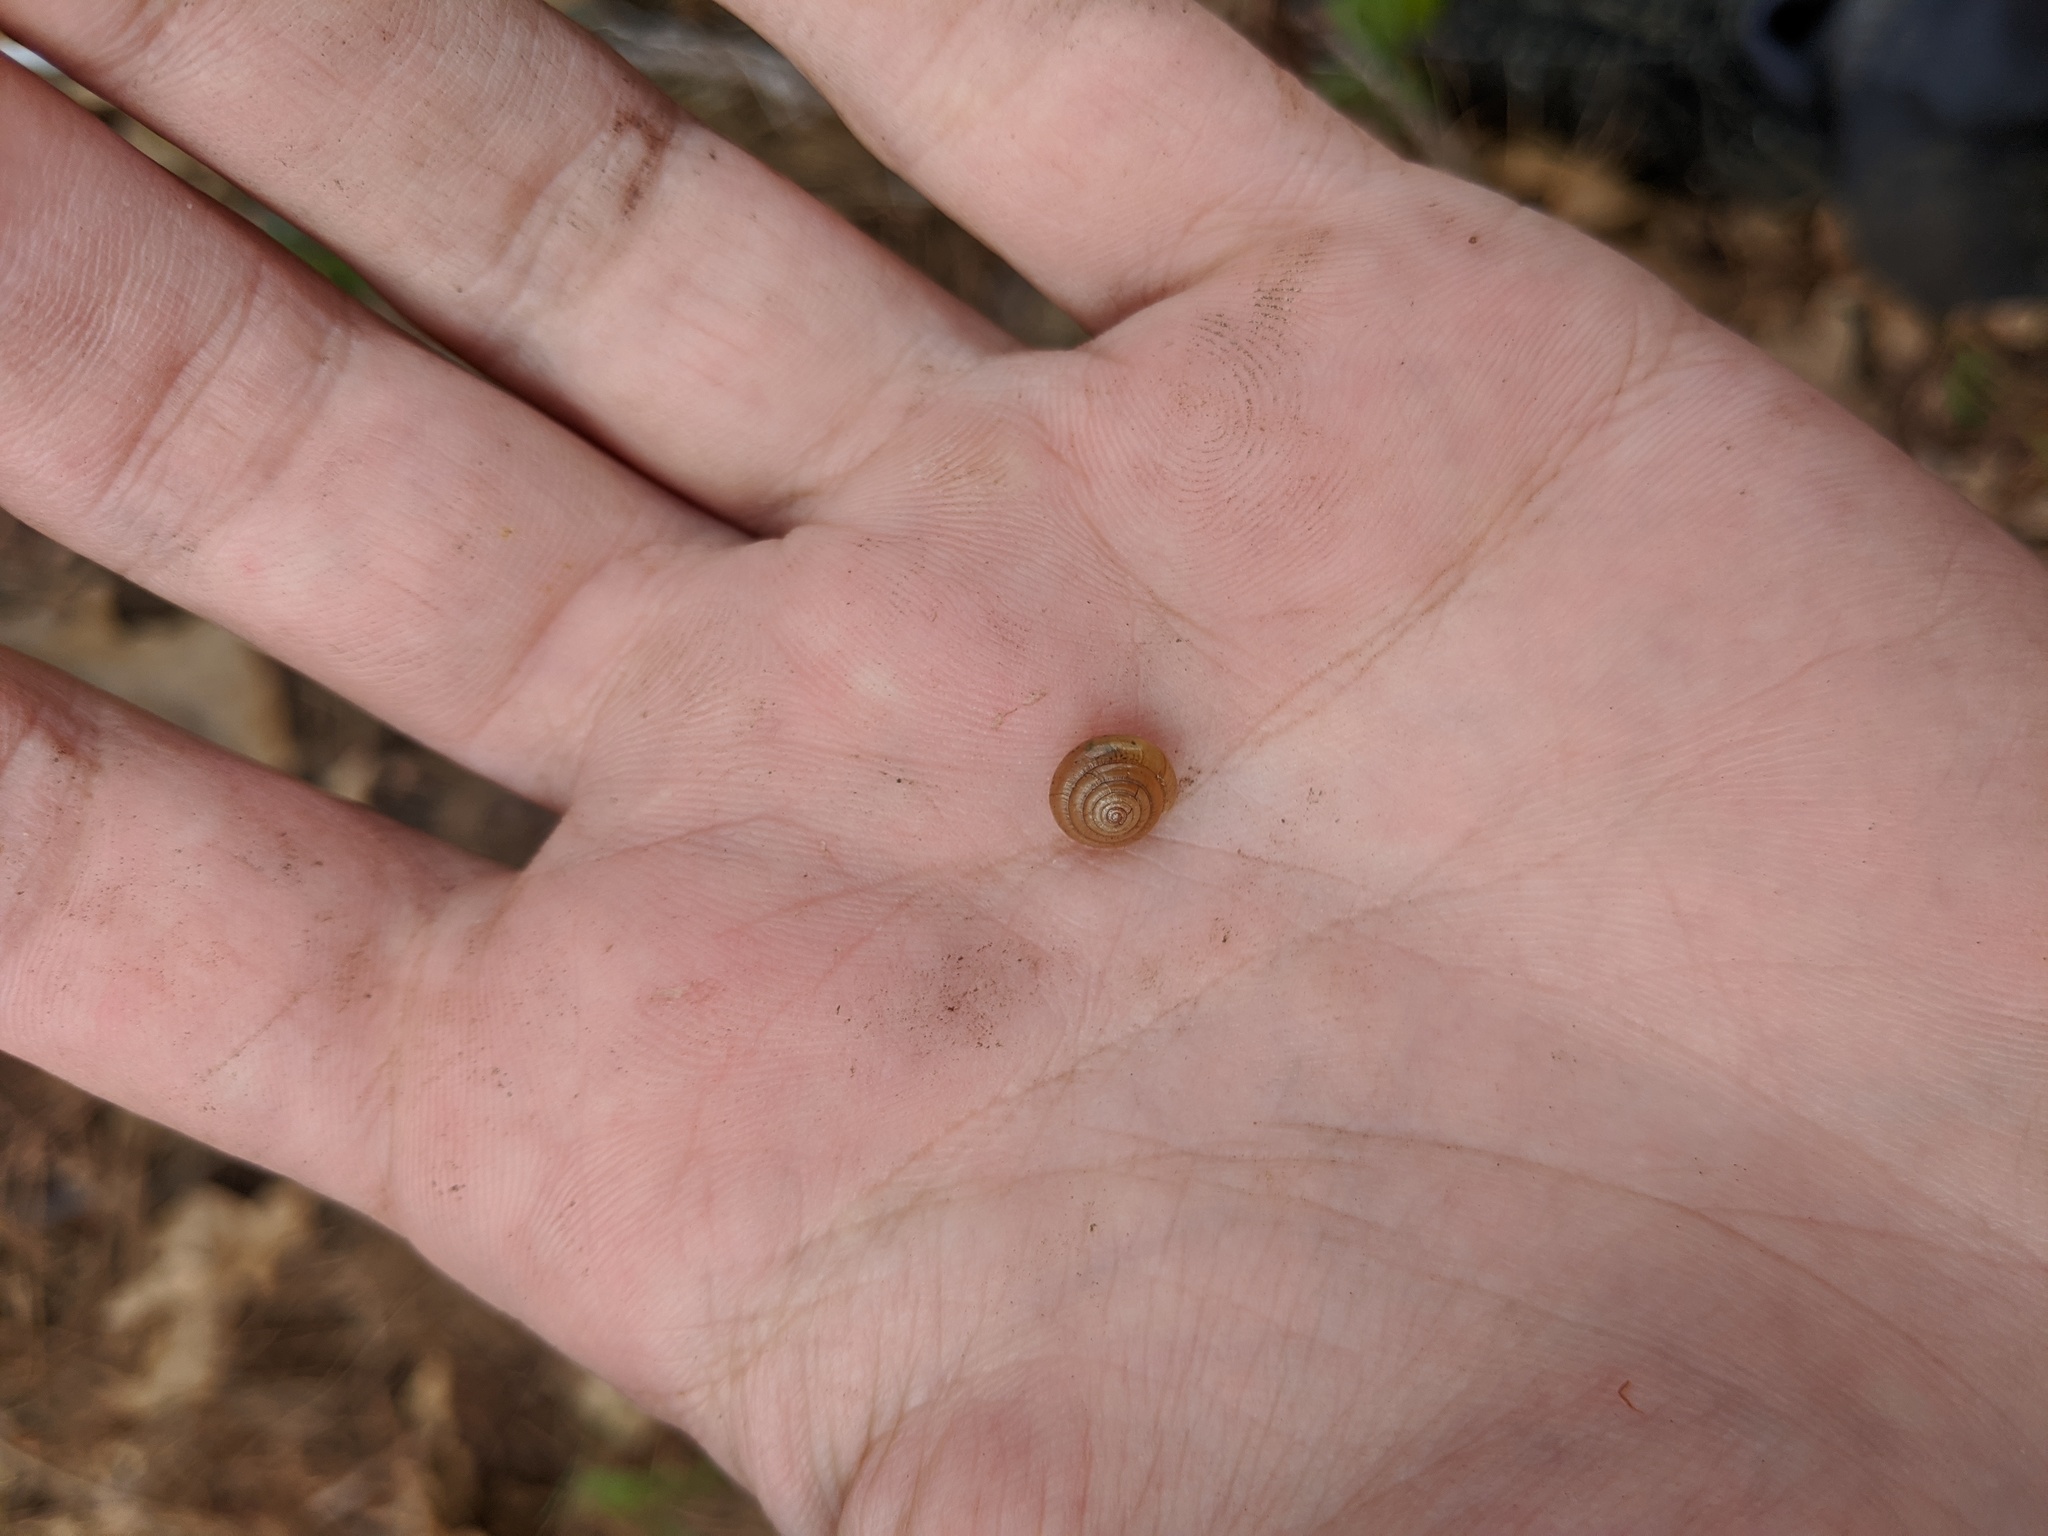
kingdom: Animalia
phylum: Mollusca
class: Gastropoda
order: Stylommatophora
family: Polygyridae
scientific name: Polygyridae
